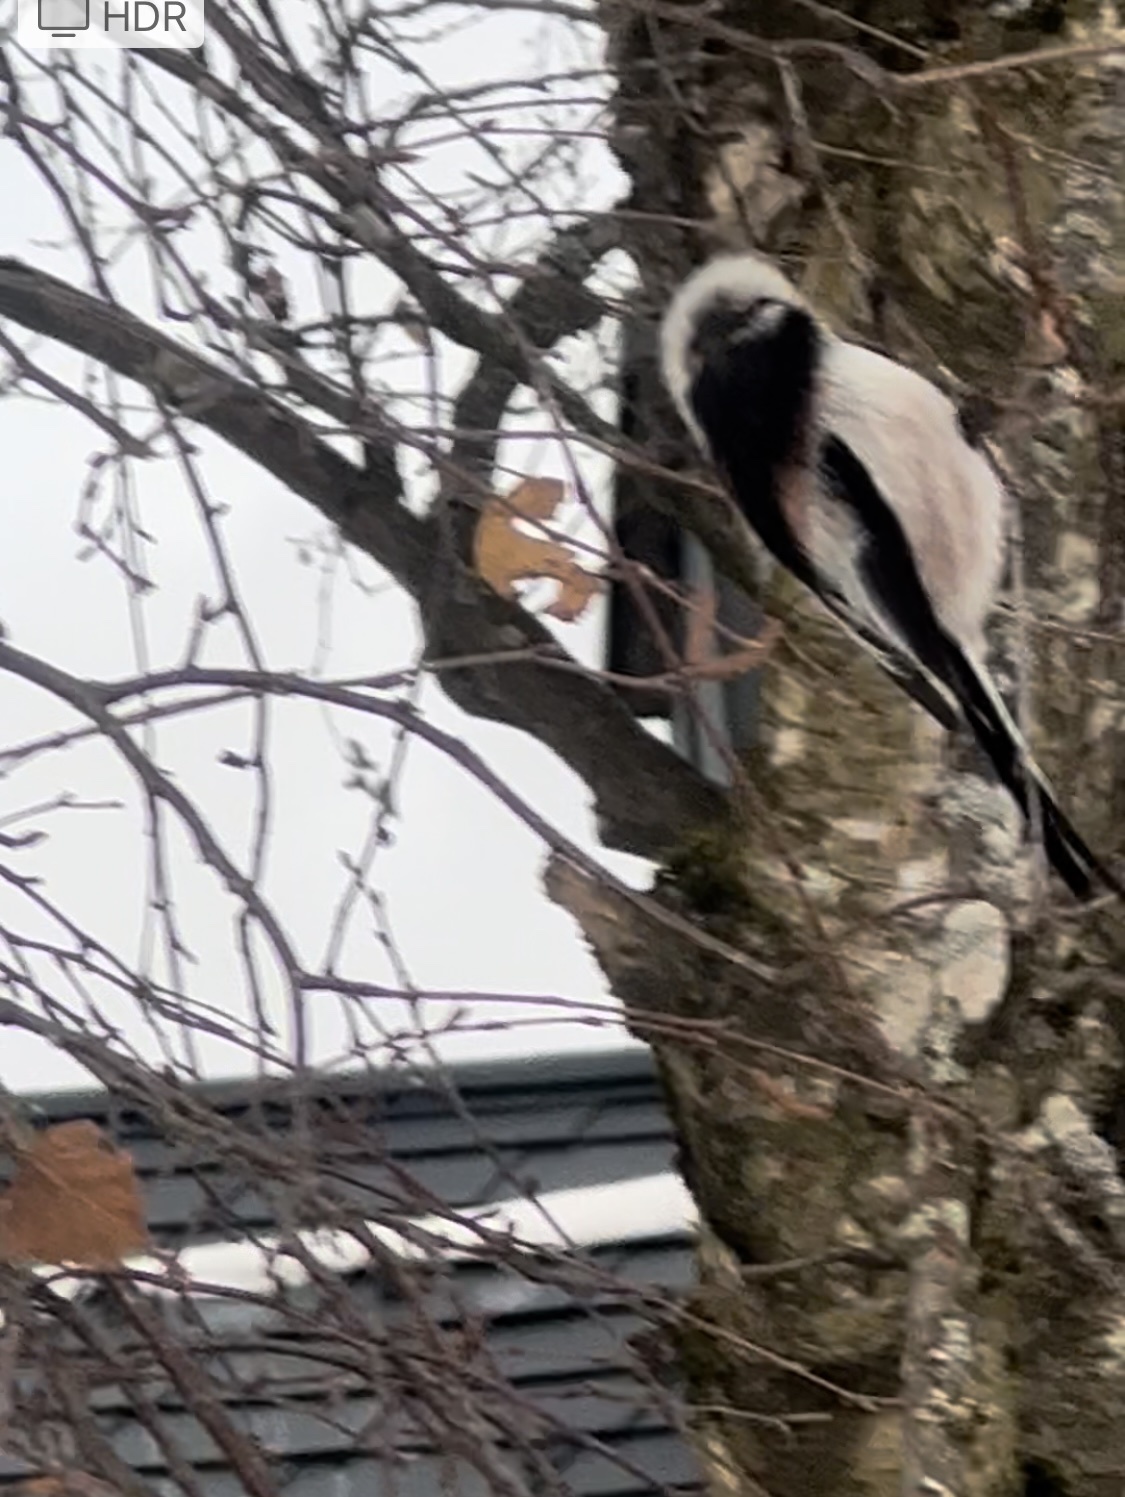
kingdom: Animalia
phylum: Chordata
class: Aves
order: Passeriformes
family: Aegithalidae
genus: Aegithalos
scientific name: Aegithalos caudatus
